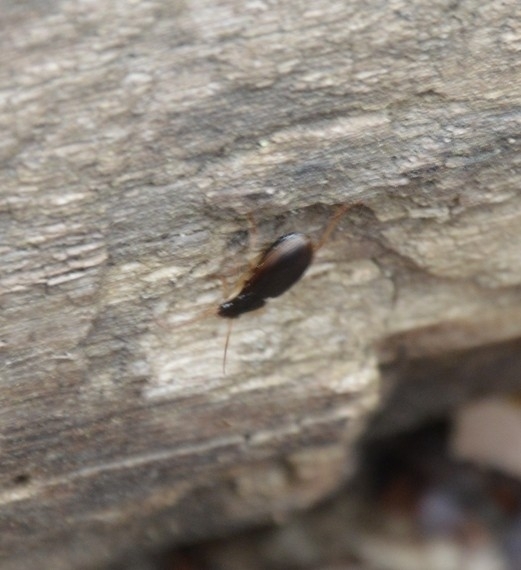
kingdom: Animalia
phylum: Arthropoda
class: Insecta
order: Coleoptera
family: Carabidae
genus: Paranchus
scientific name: Paranchus albipes
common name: White-legged harp ground beetle
